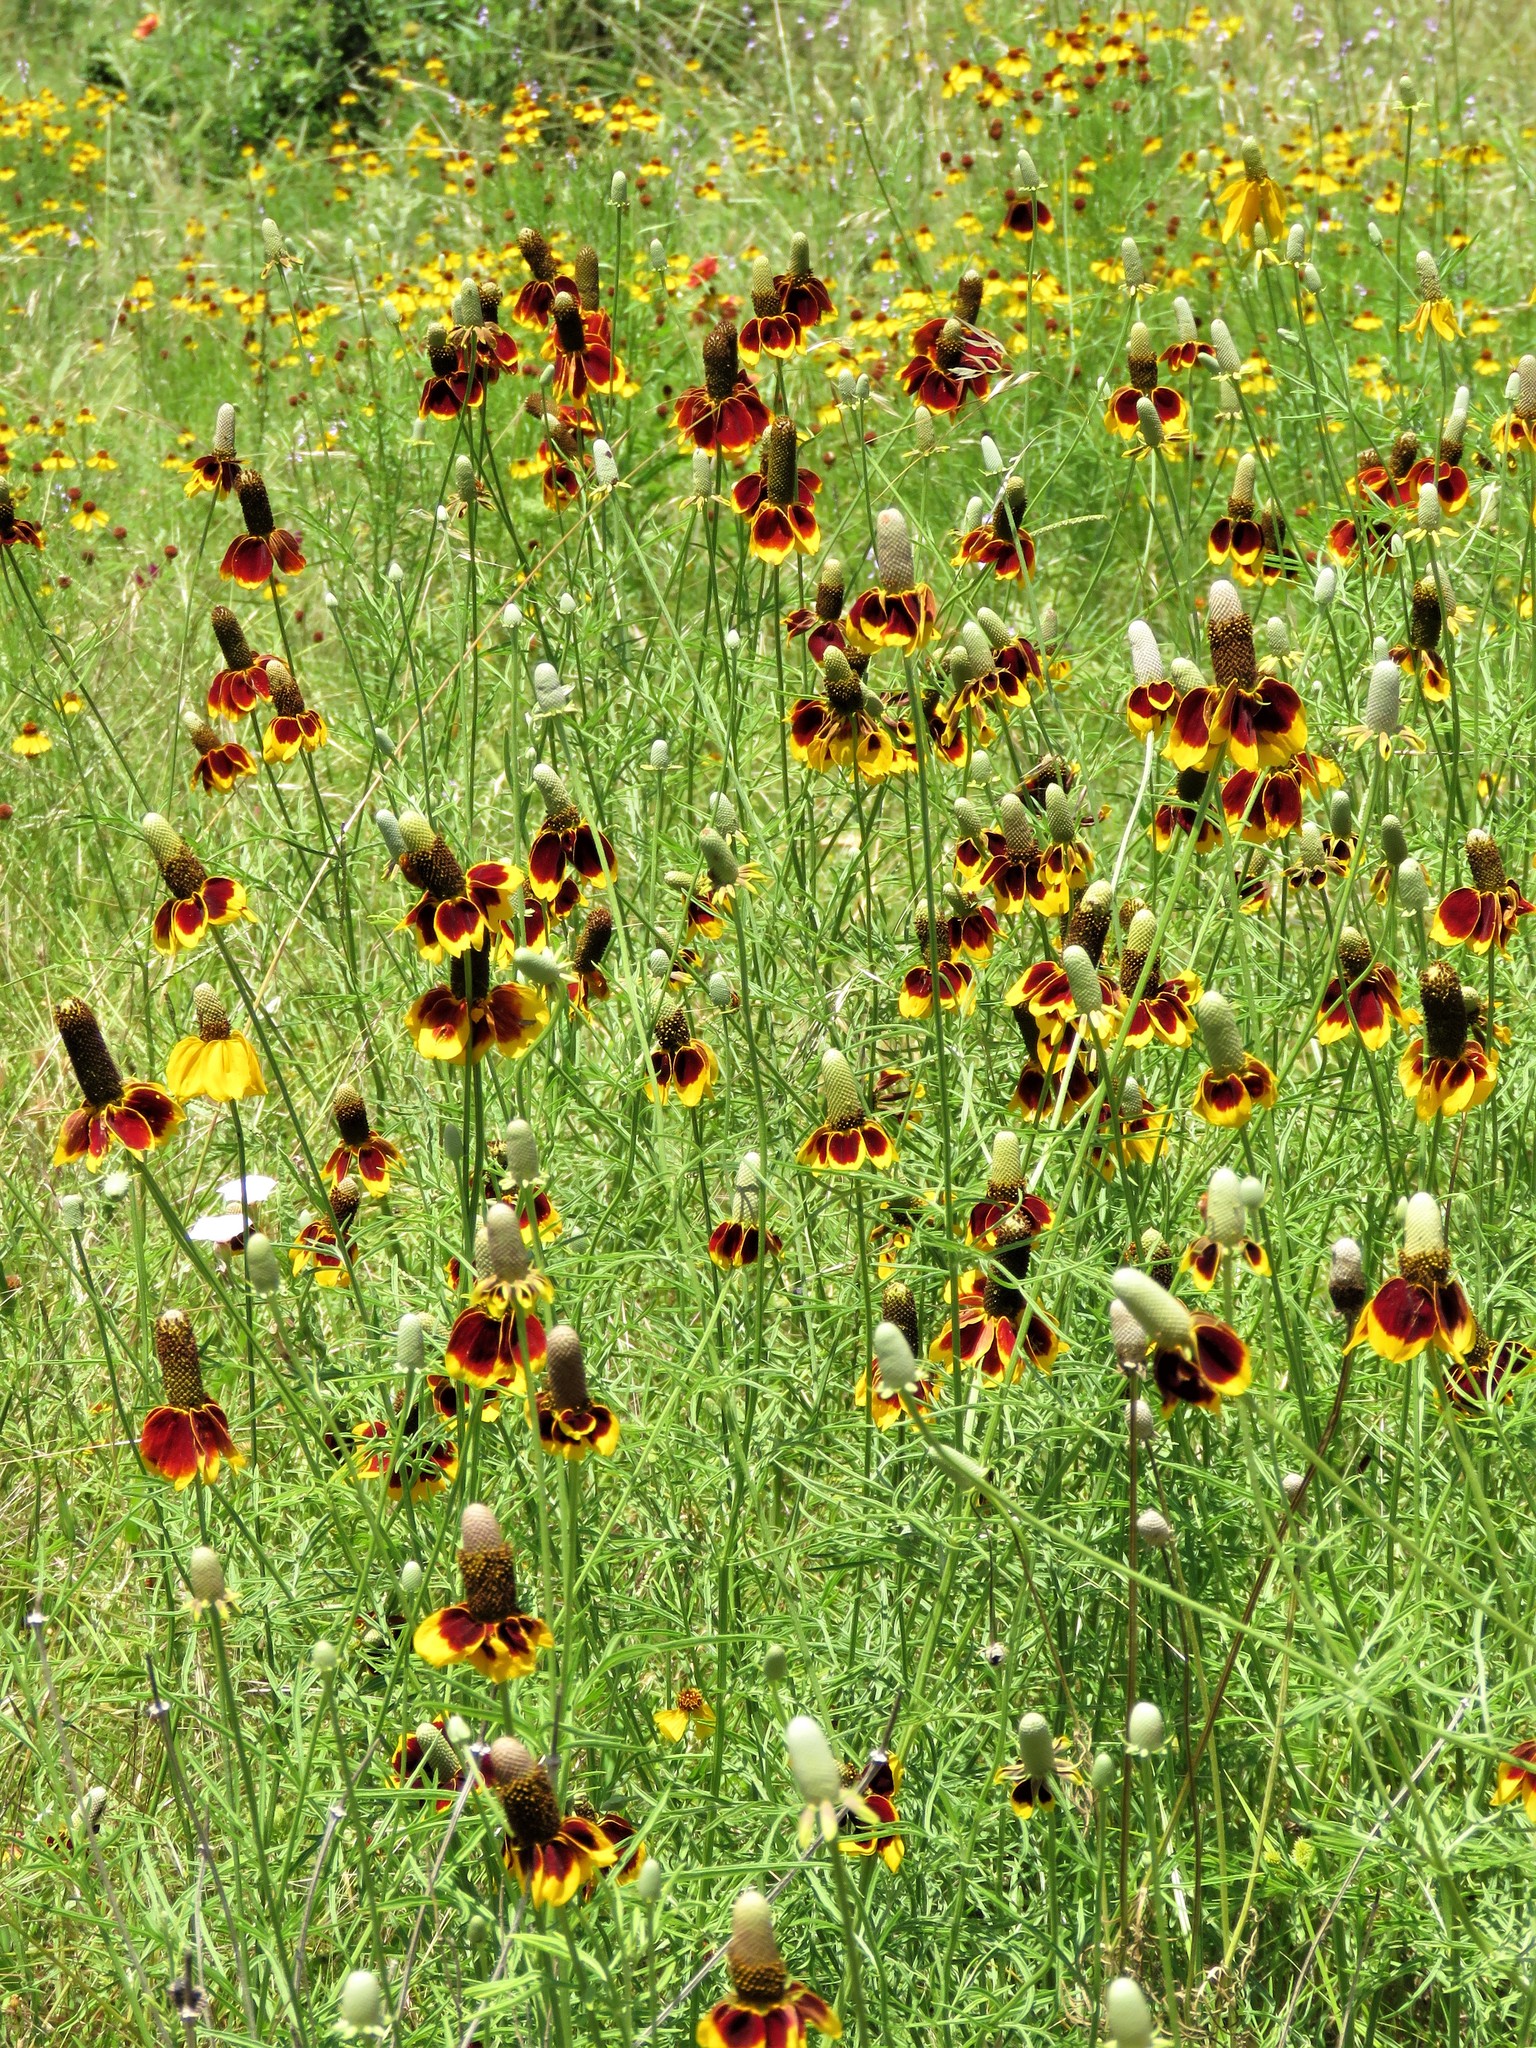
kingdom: Plantae
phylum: Tracheophyta
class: Magnoliopsida
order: Asterales
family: Asteraceae
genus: Ratibida
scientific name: Ratibida columnifera
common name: Prairie coneflower
